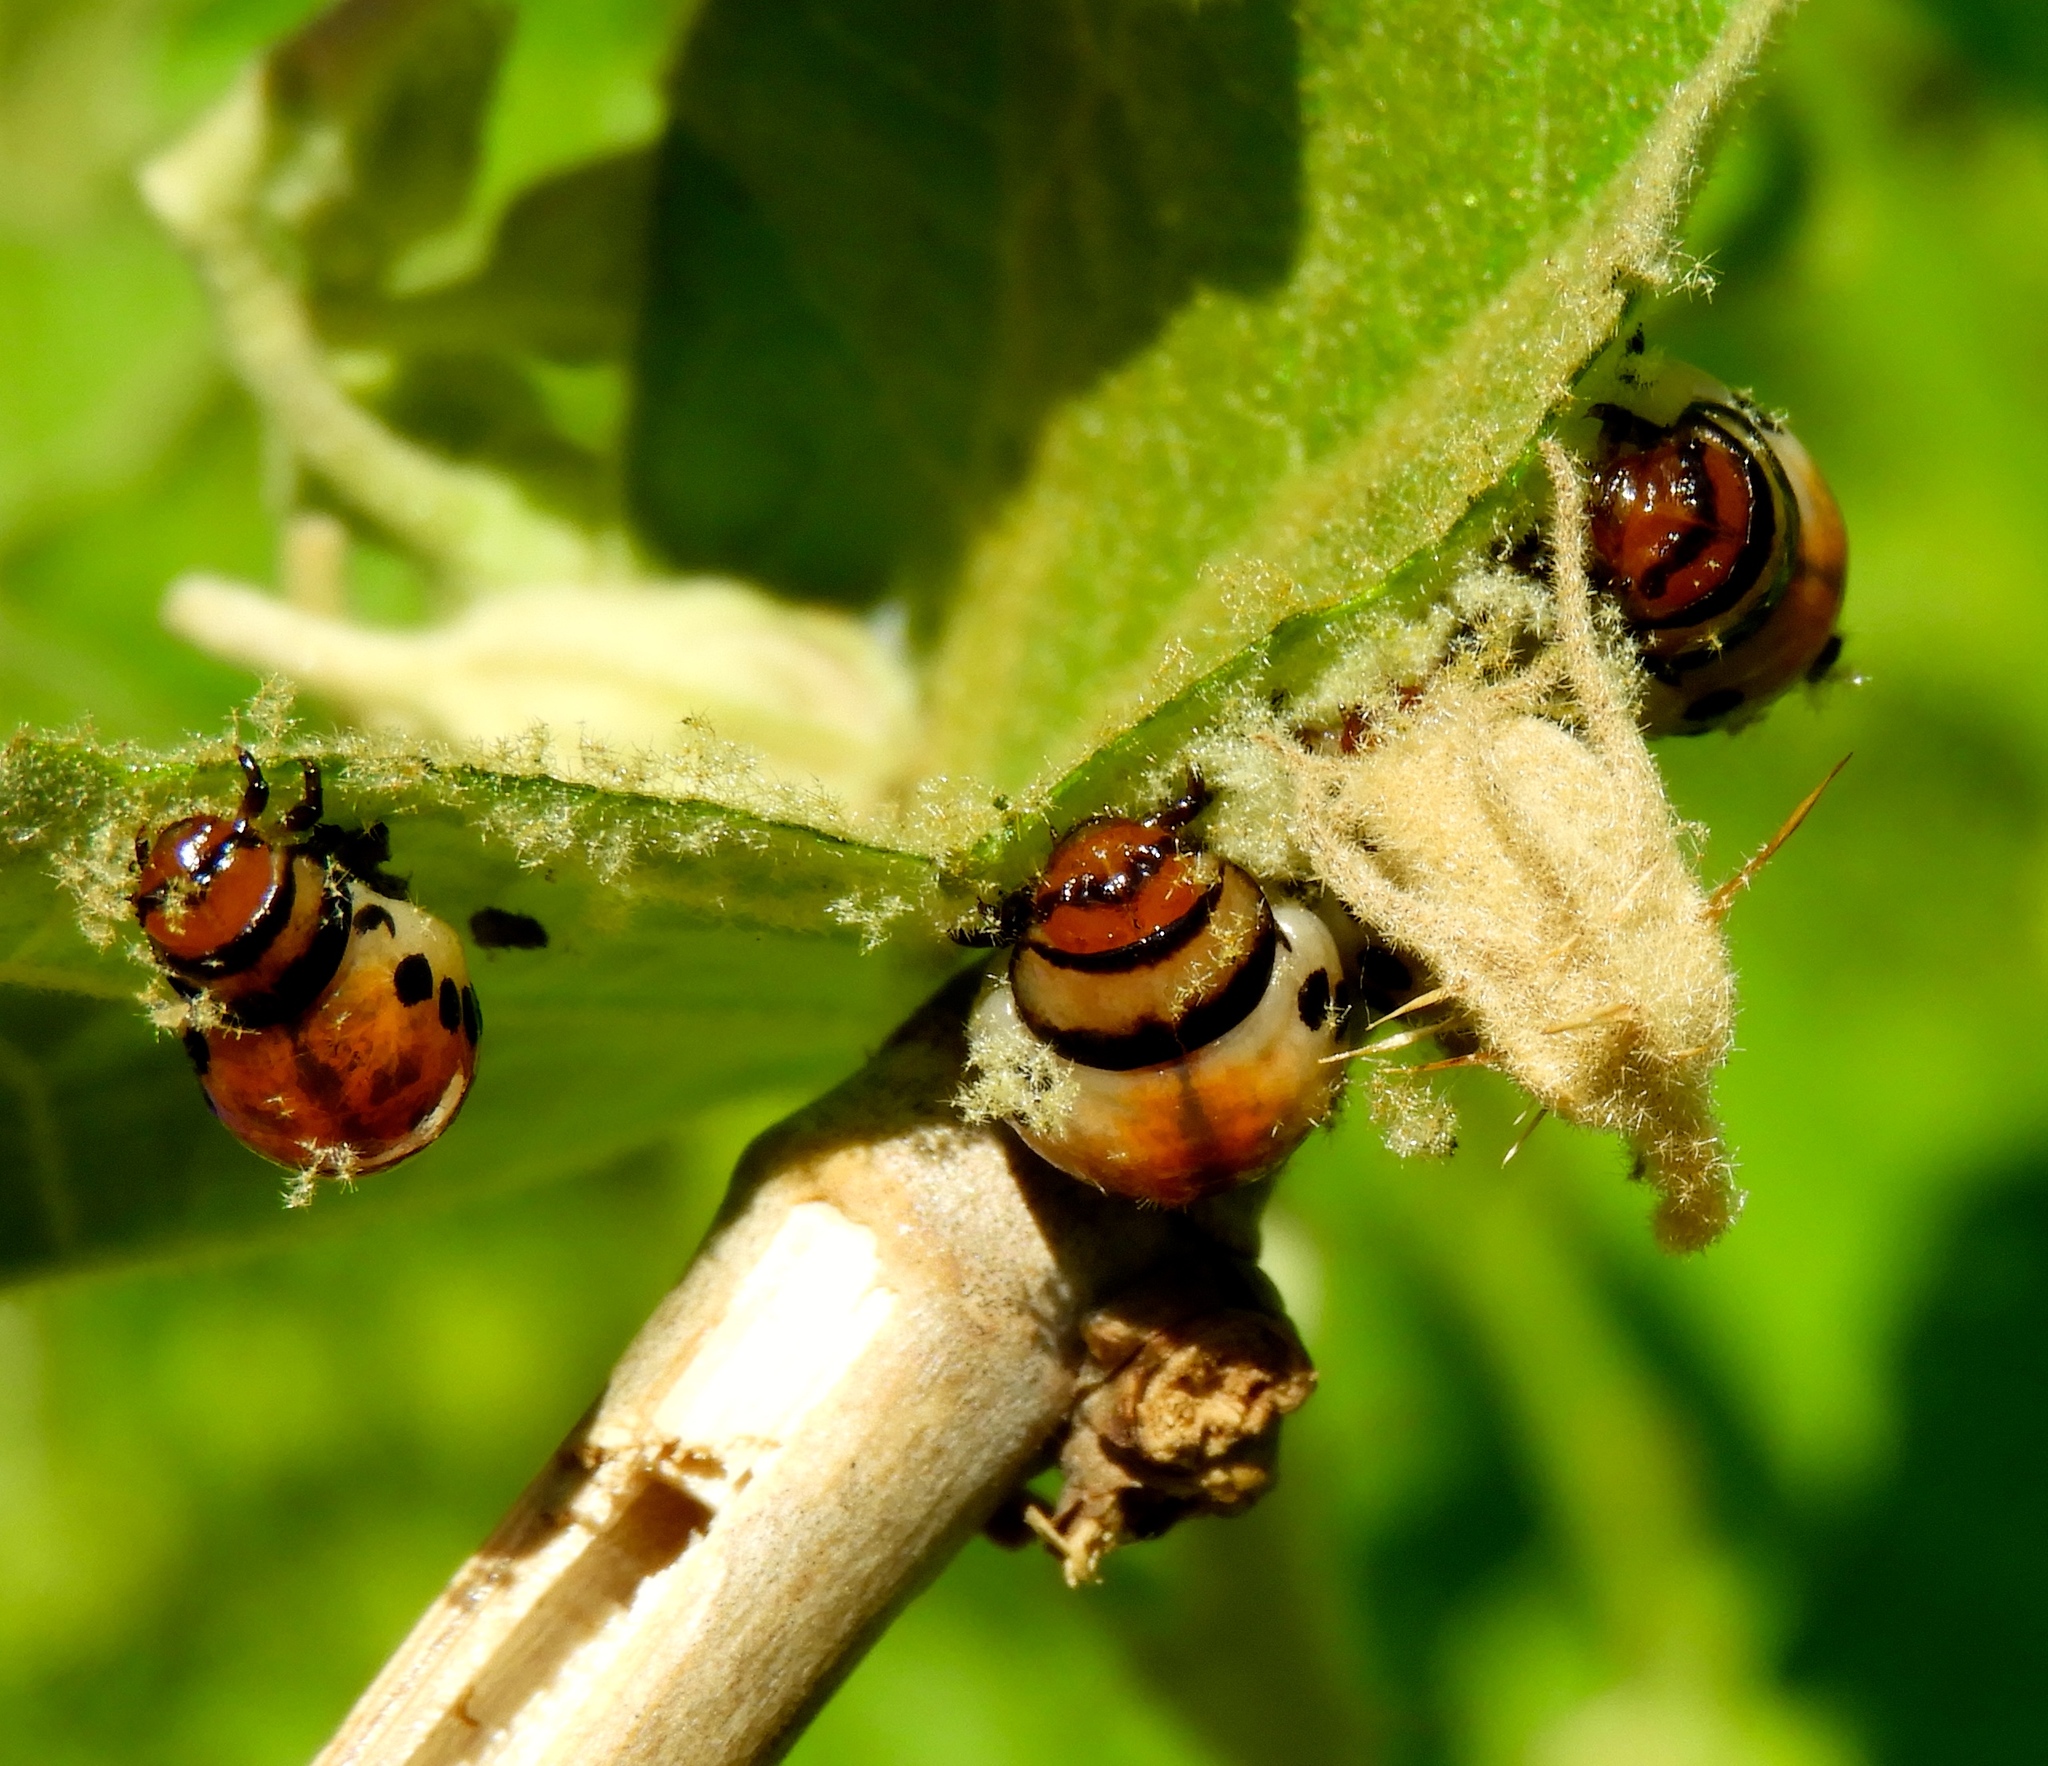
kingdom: Animalia
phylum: Arthropoda
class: Insecta
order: Coleoptera
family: Chrysomelidae
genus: Leptinotarsa
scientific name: Leptinotarsa
